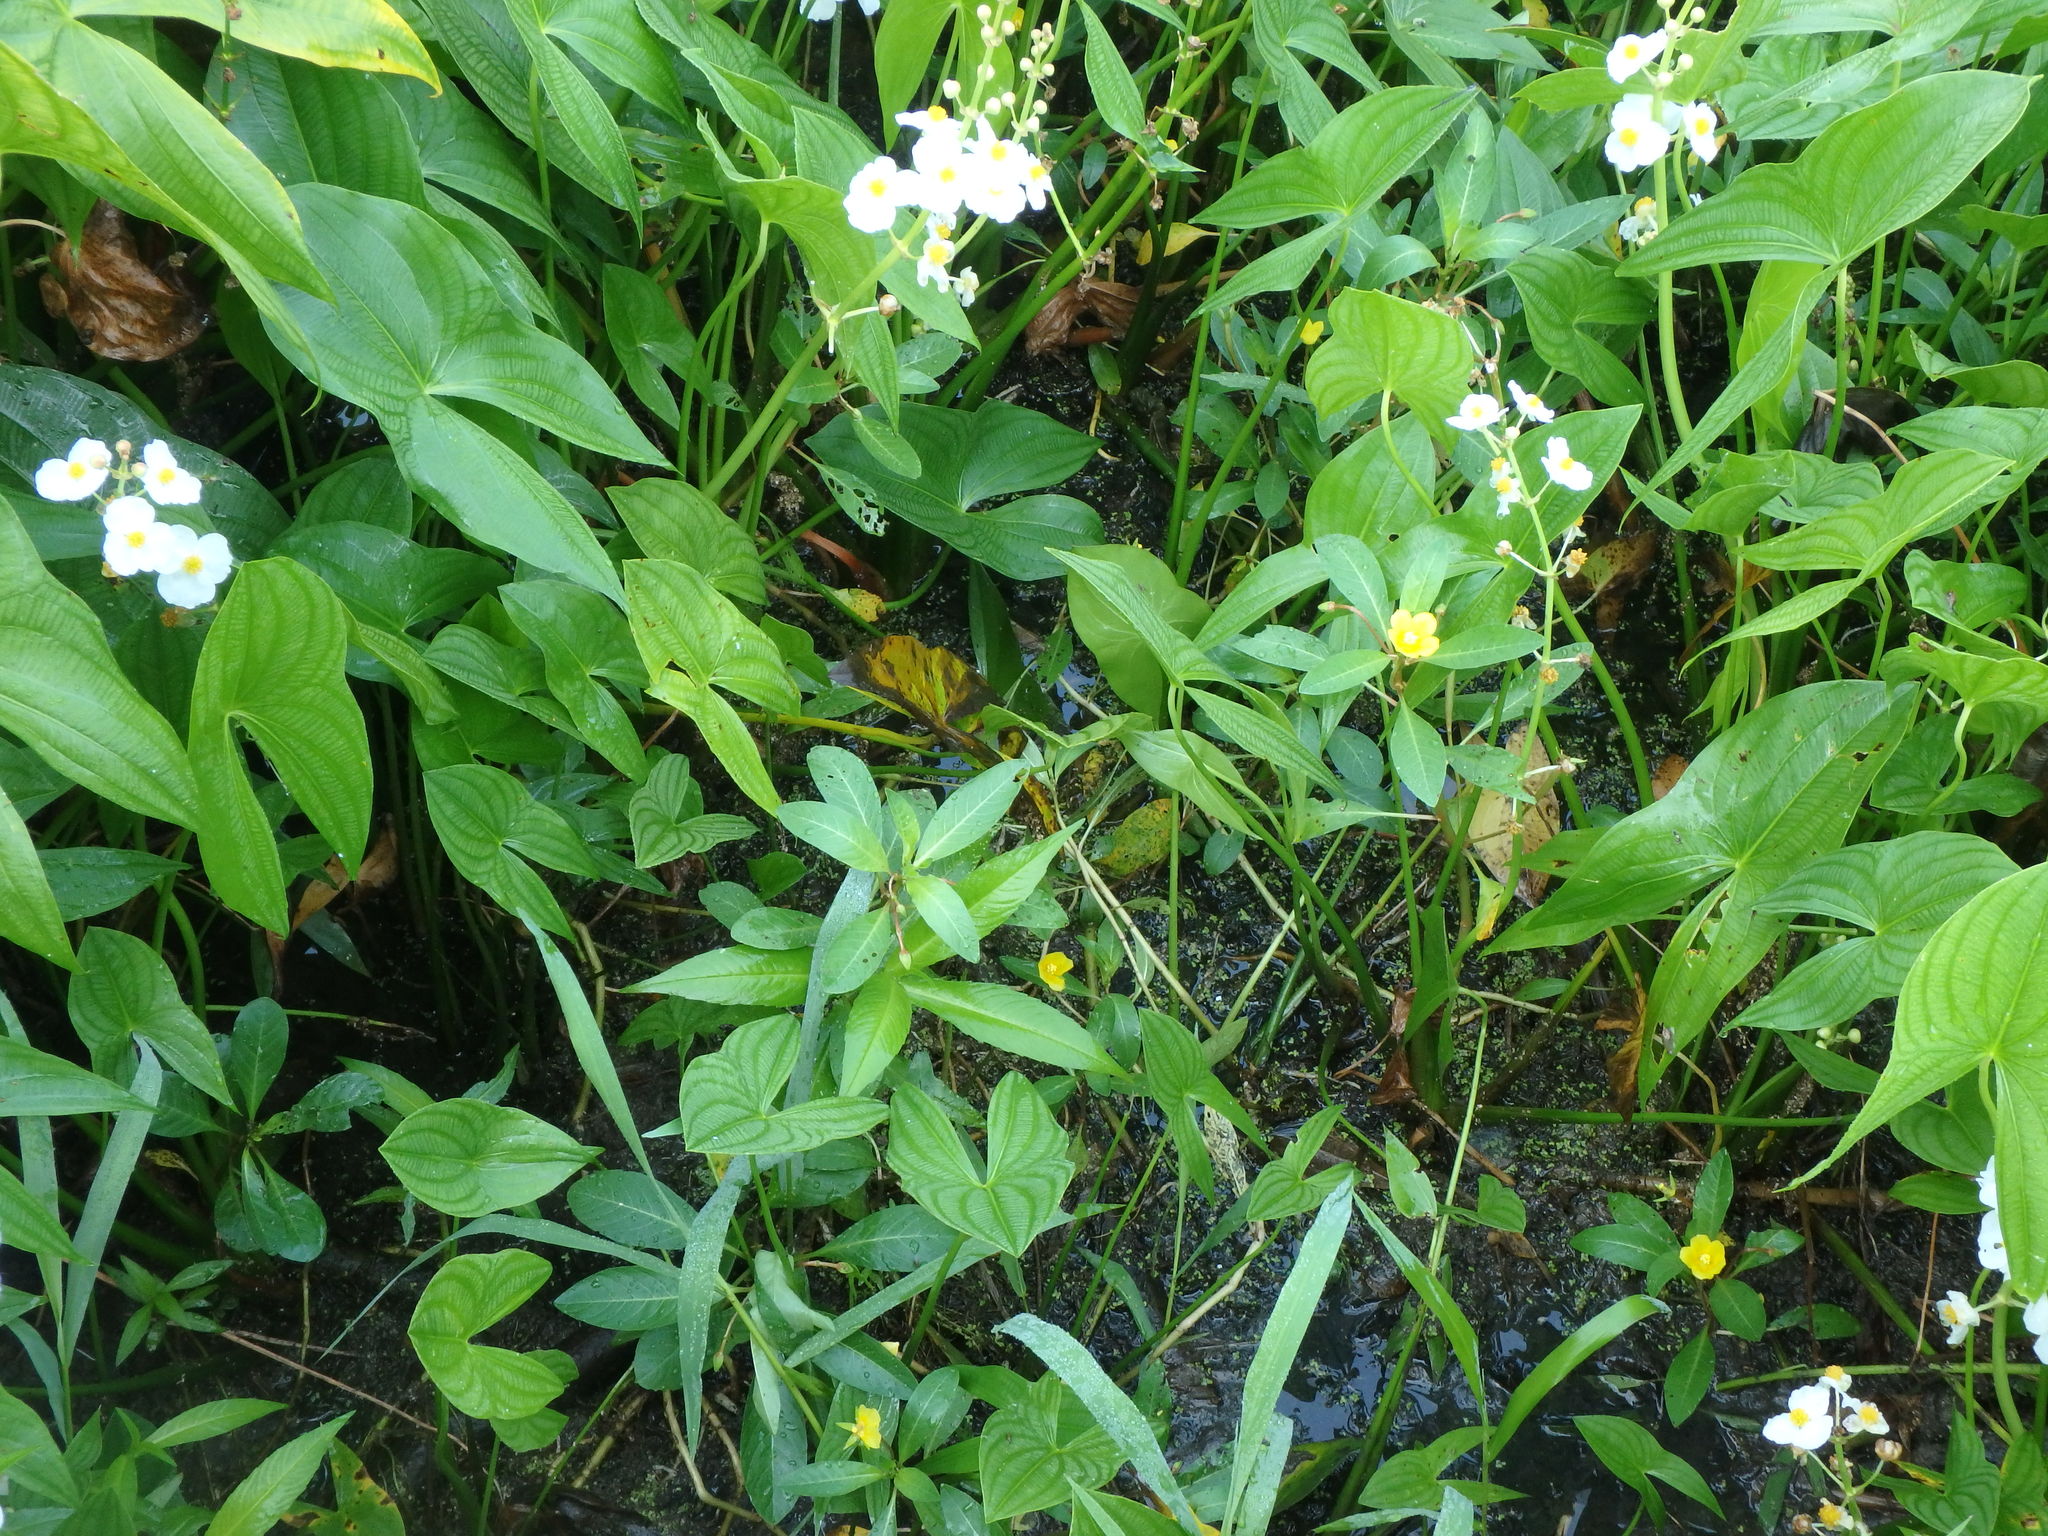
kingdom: Plantae
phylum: Tracheophyta
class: Liliopsida
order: Alismatales
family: Alismataceae
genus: Sagittaria
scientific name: Sagittaria latifolia
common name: Duck-potato
